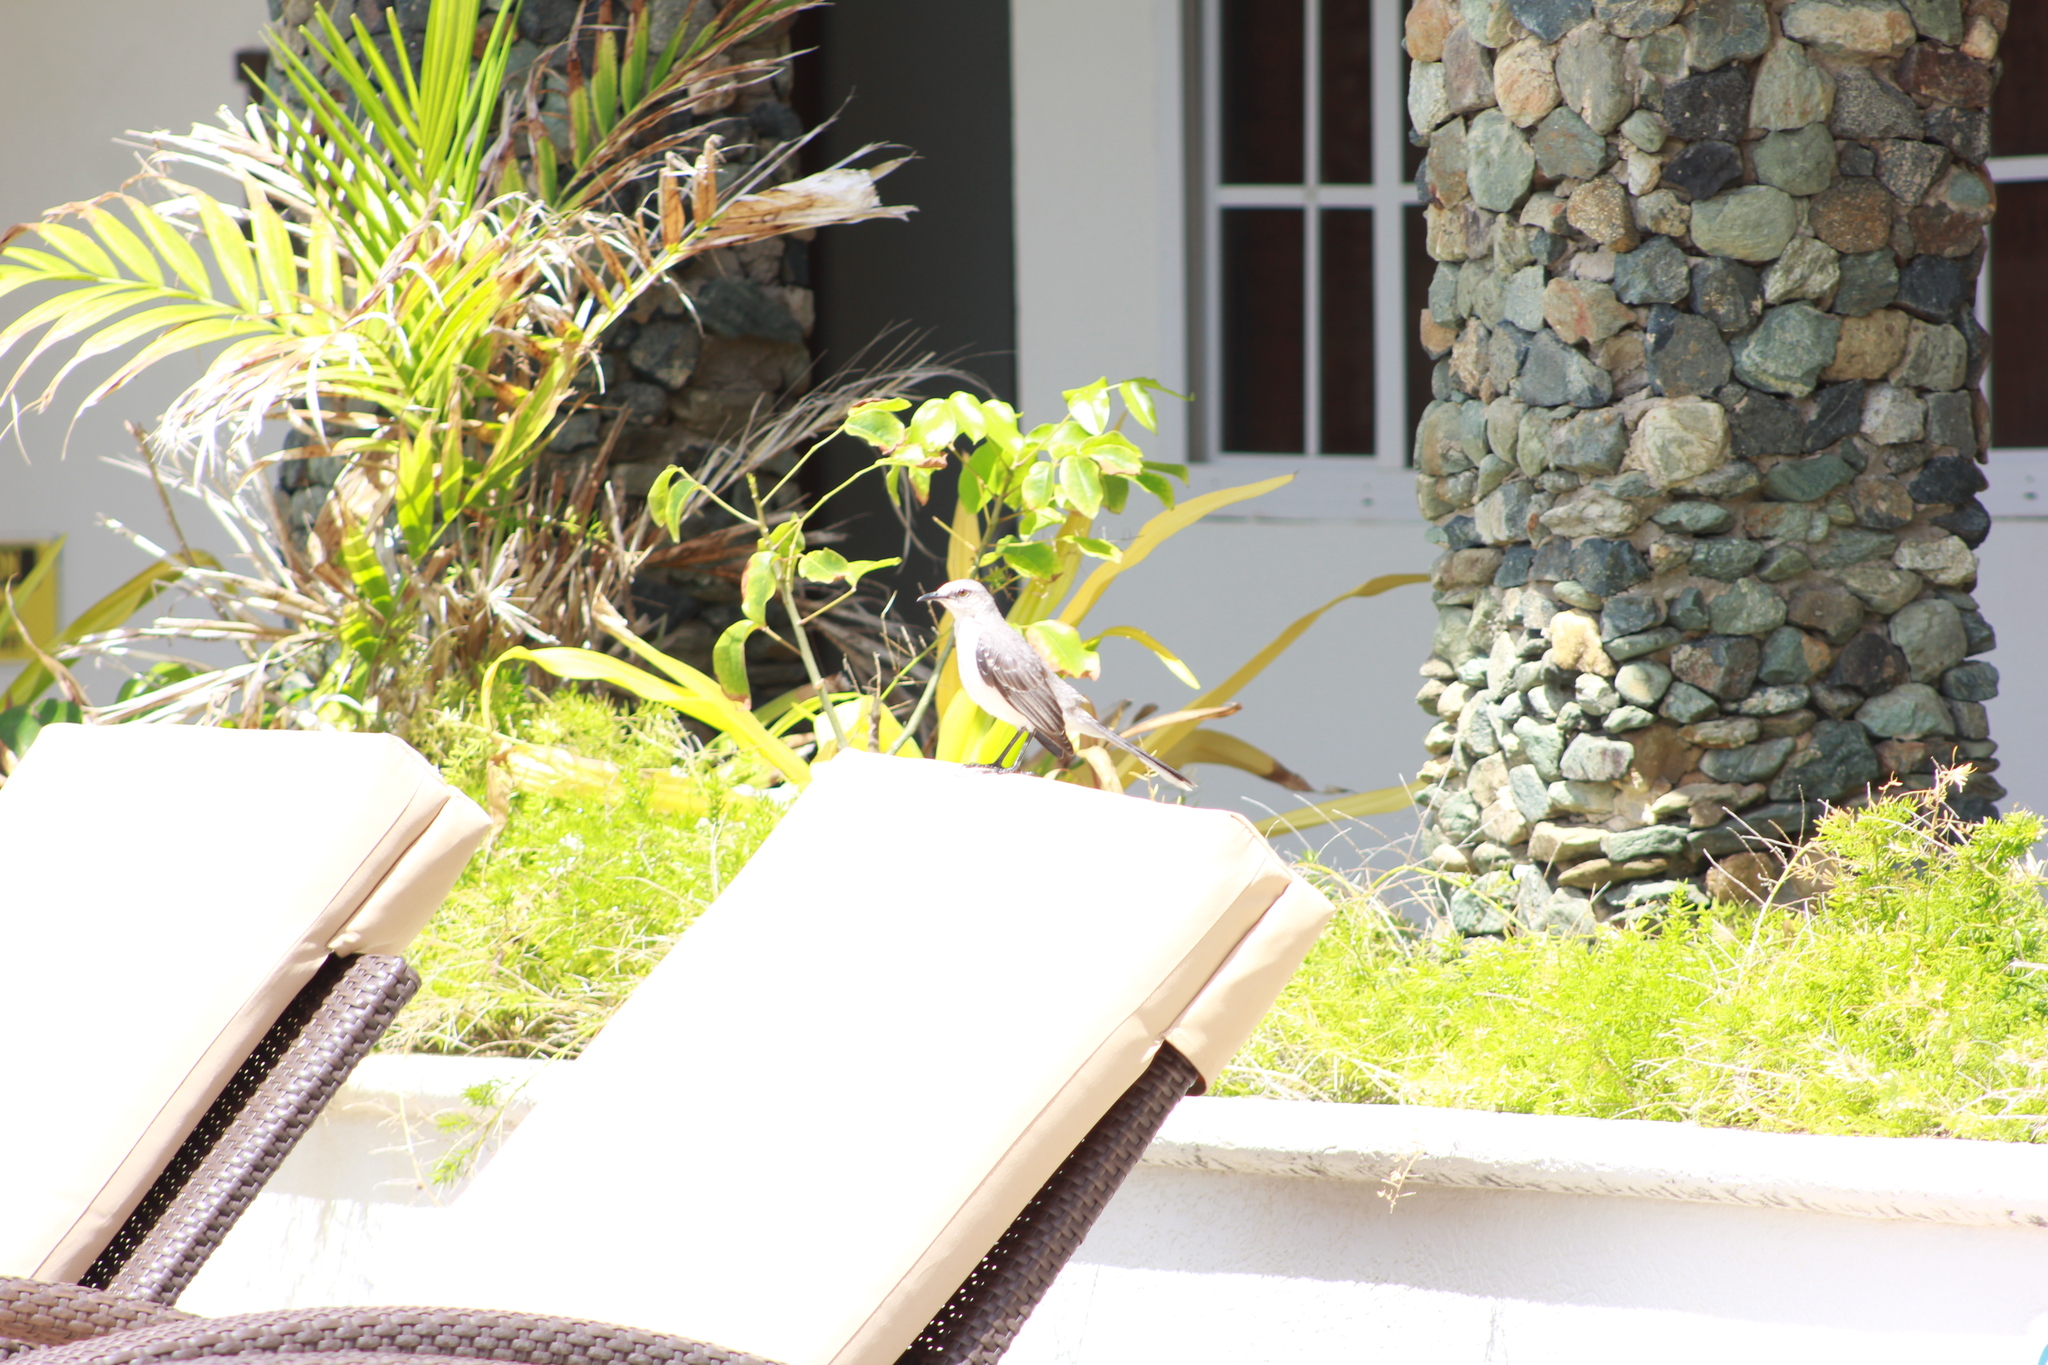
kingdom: Animalia
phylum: Chordata
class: Aves
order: Passeriformes
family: Mimidae
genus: Mimus
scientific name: Mimus gilvus
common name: Tropical mockingbird
